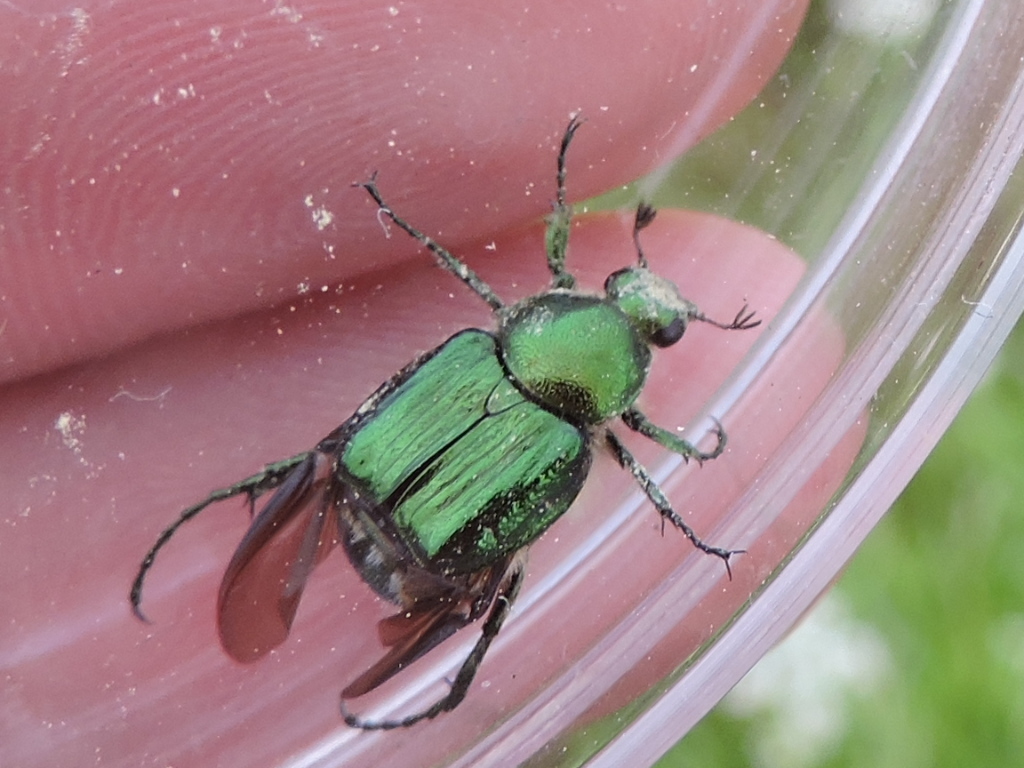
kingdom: Animalia
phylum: Arthropoda
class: Insecta
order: Coleoptera
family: Scarabaeidae
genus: Trichiotinus
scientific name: Trichiotinus lunulatus
